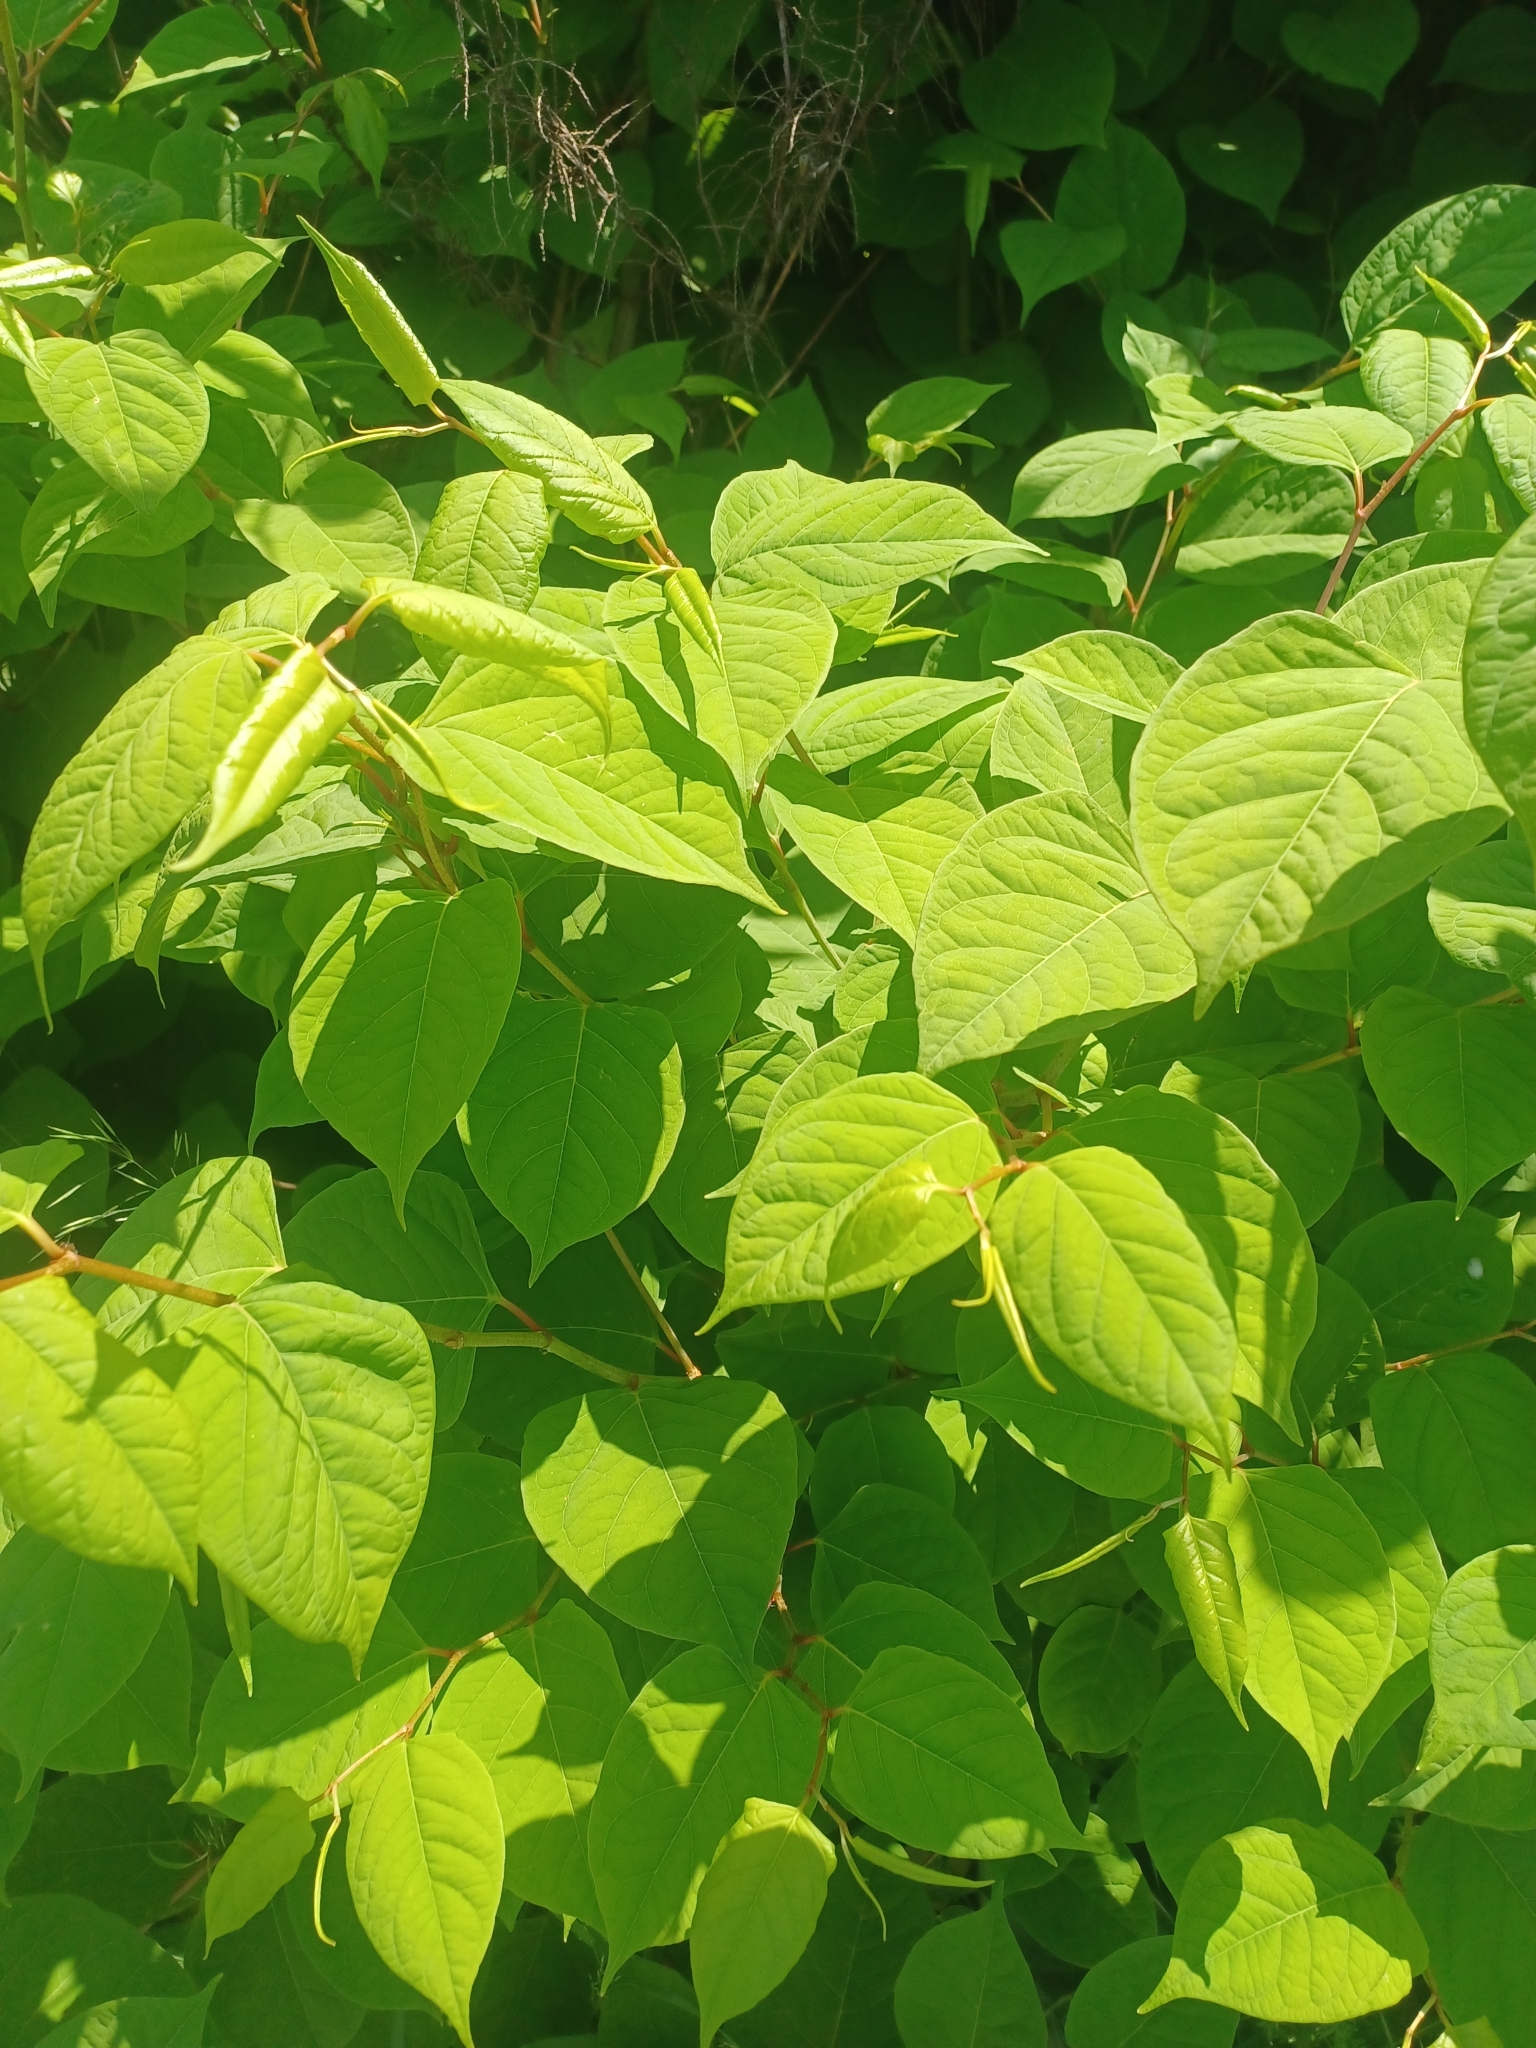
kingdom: Plantae
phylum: Tracheophyta
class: Magnoliopsida
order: Caryophyllales
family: Polygonaceae
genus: Reynoutria
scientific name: Reynoutria japonica
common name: Japanese knotweed
